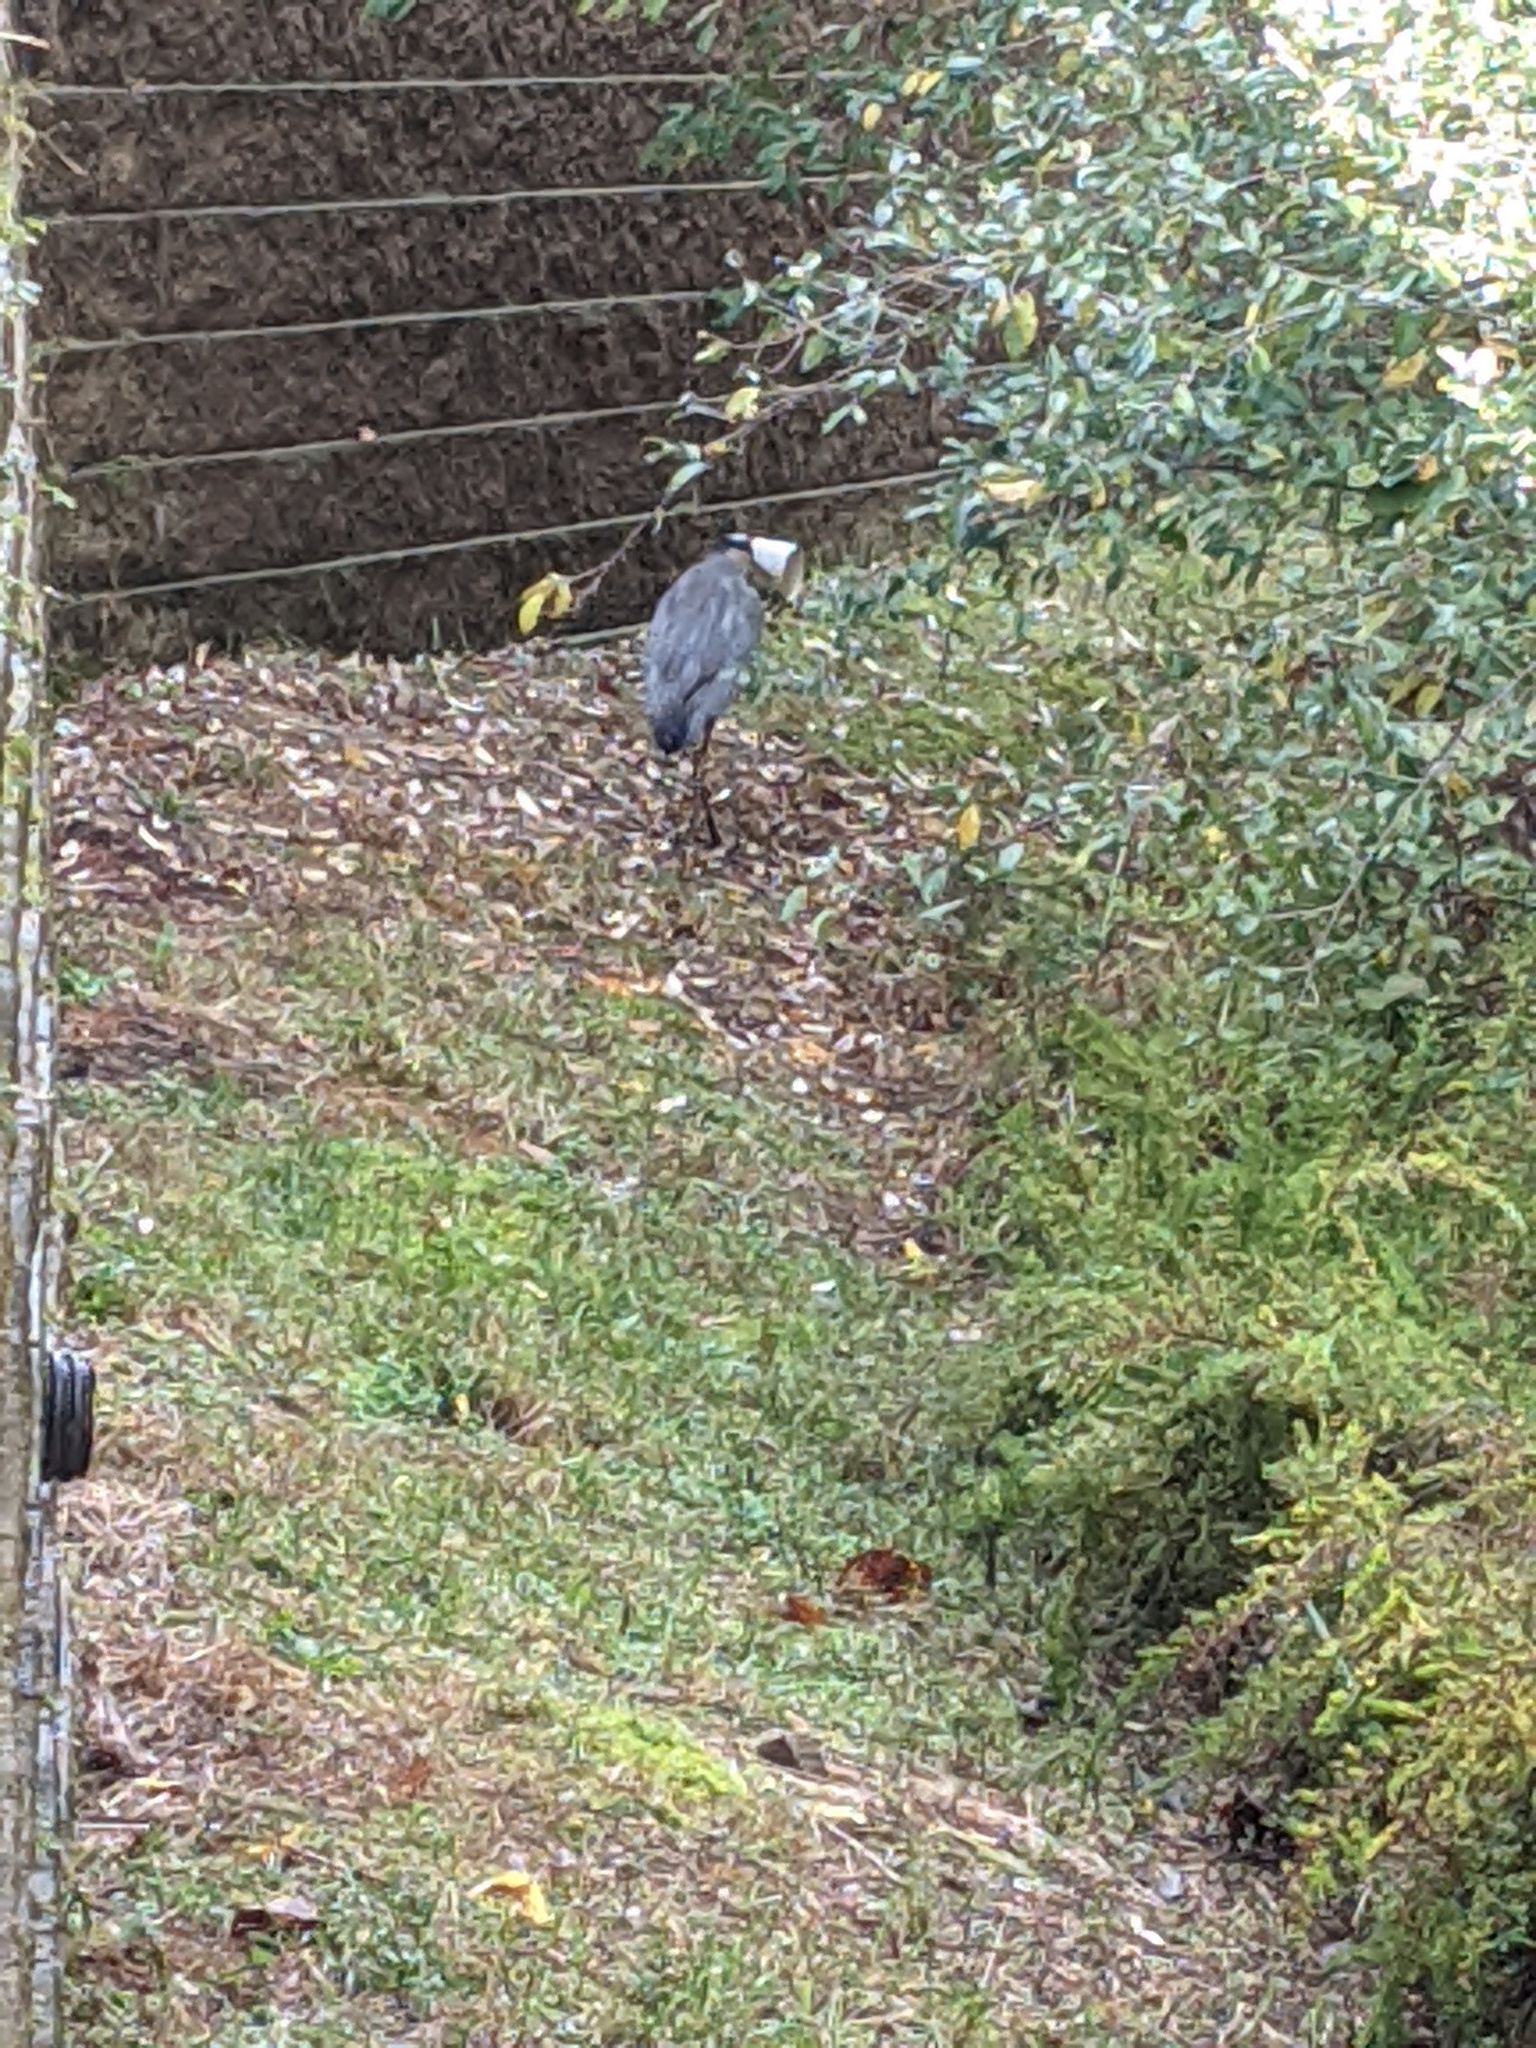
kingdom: Animalia
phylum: Chordata
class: Aves
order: Pelecaniformes
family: Ardeidae
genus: Ardea
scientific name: Ardea herodias
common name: Great blue heron
